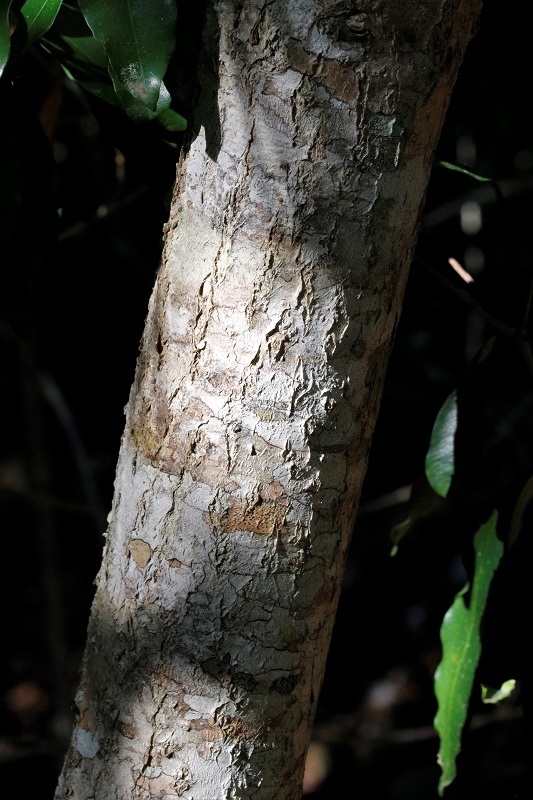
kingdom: Plantae
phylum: Tracheophyta
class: Magnoliopsida
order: Gentianales
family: Apocynaceae
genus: Gonioma
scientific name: Gonioma kamassi
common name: Kamassi
